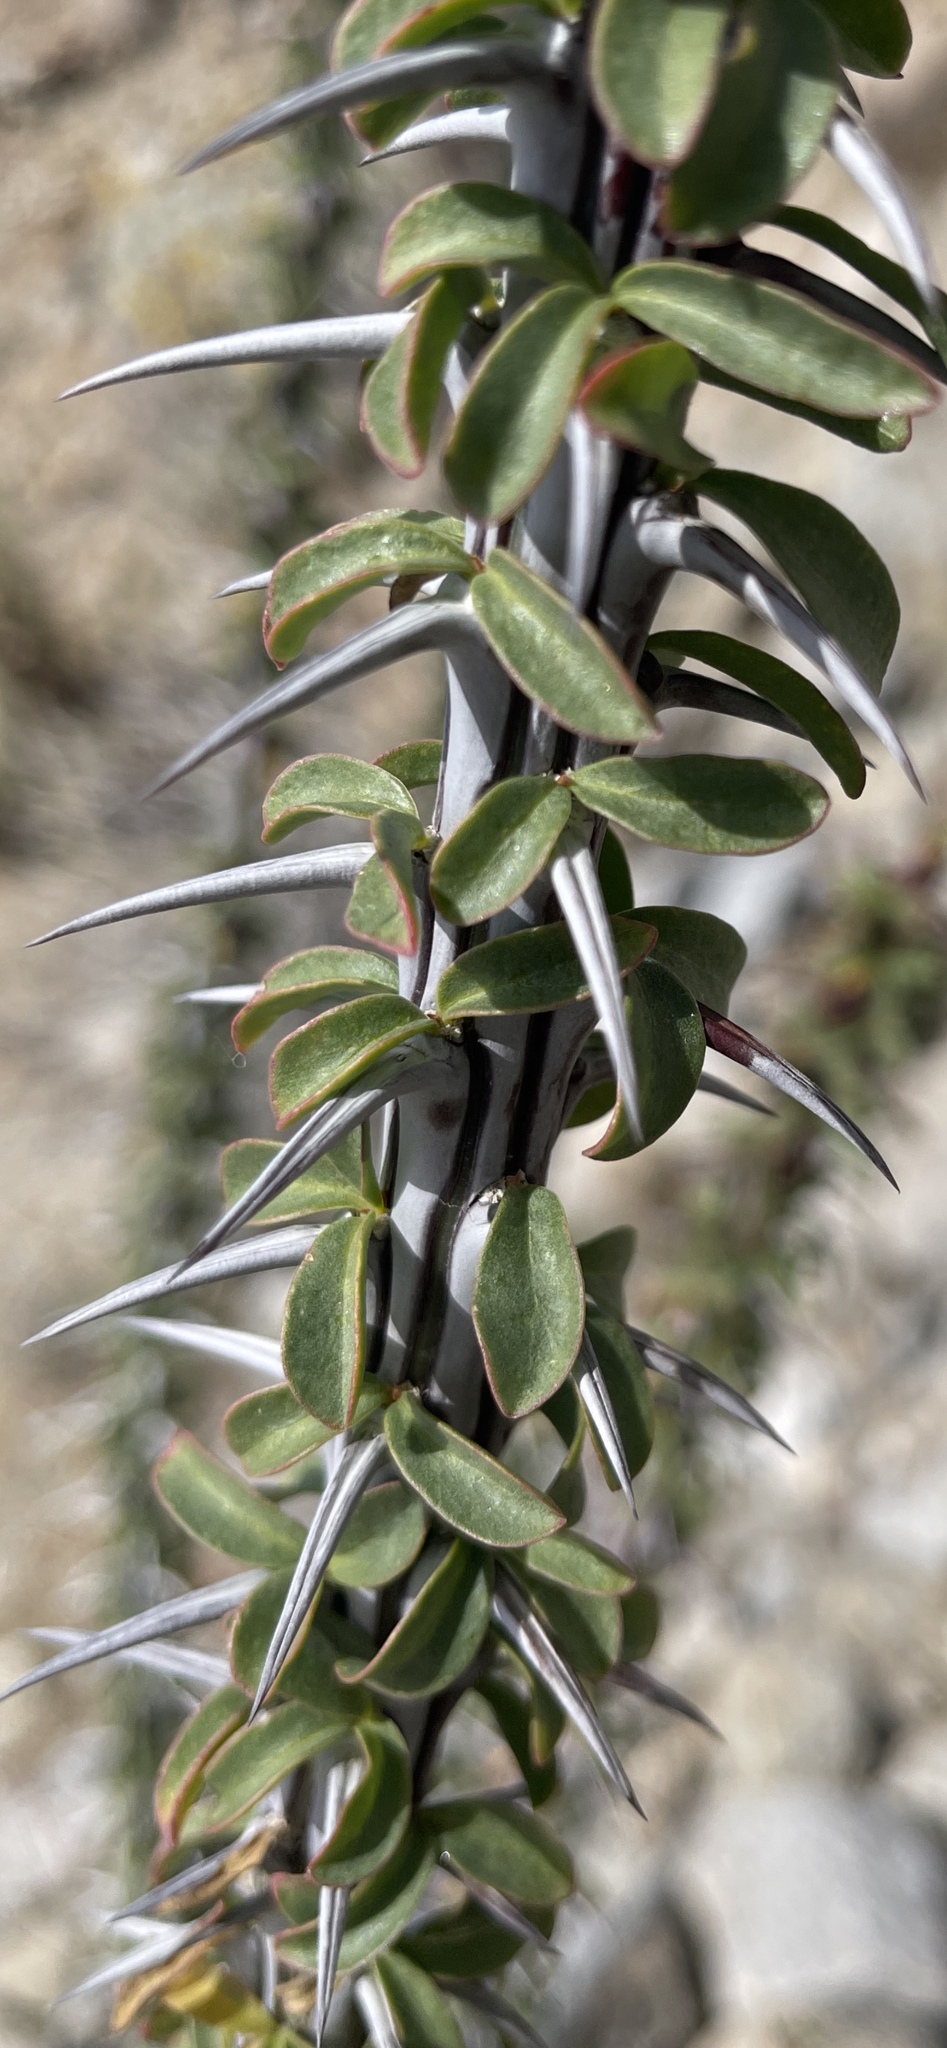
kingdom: Plantae
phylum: Tracheophyta
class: Magnoliopsida
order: Ericales
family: Fouquieriaceae
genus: Fouquieria
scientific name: Fouquieria splendens
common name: Vine-cactus
